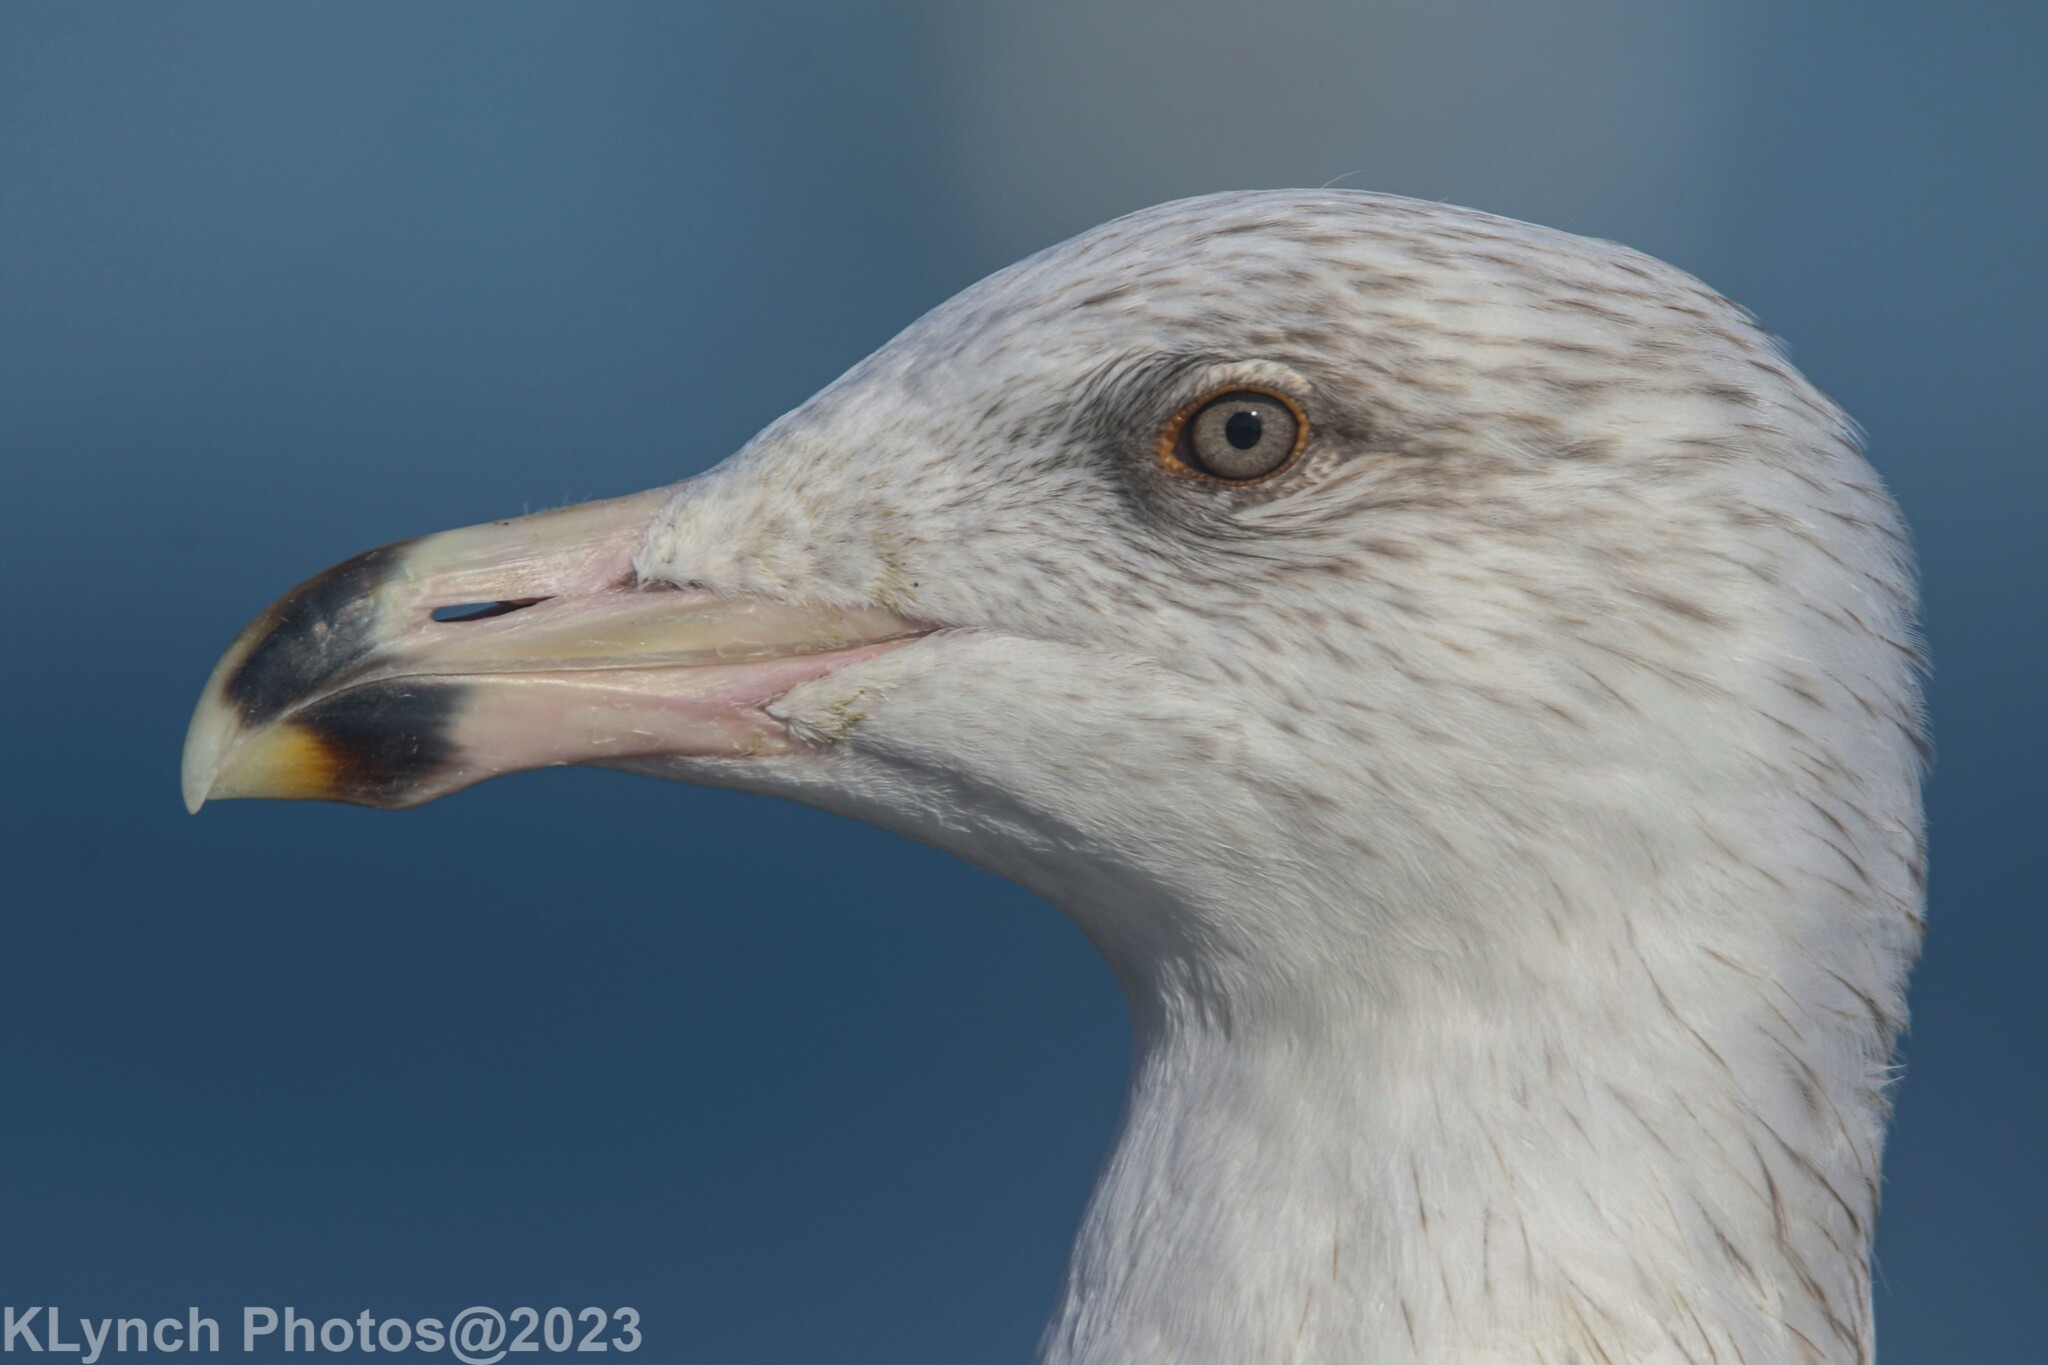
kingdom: Animalia
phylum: Chordata
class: Aves
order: Charadriiformes
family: Laridae
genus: Larus
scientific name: Larus argentatus
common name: Herring gull
